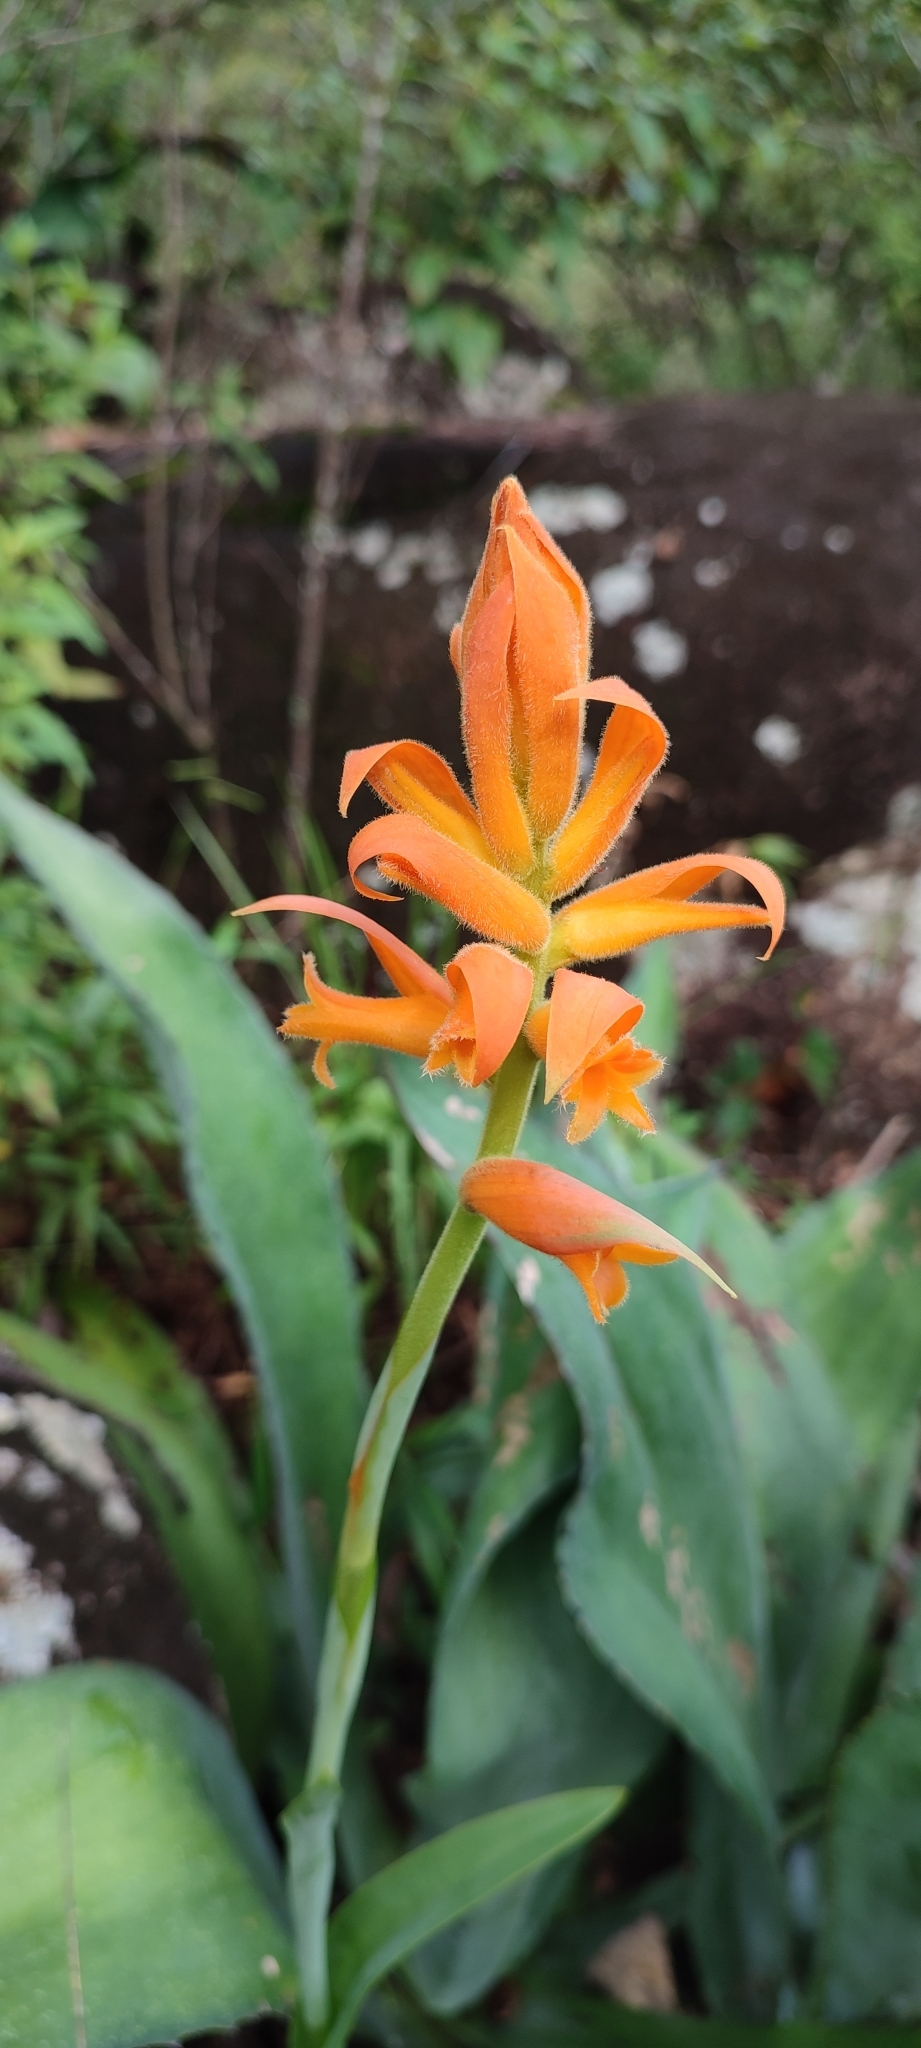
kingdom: Plantae
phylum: Tracheophyta
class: Liliopsida
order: Asparagales
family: Orchidaceae
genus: Dichromanthus
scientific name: Dichromanthus aurantiacus
